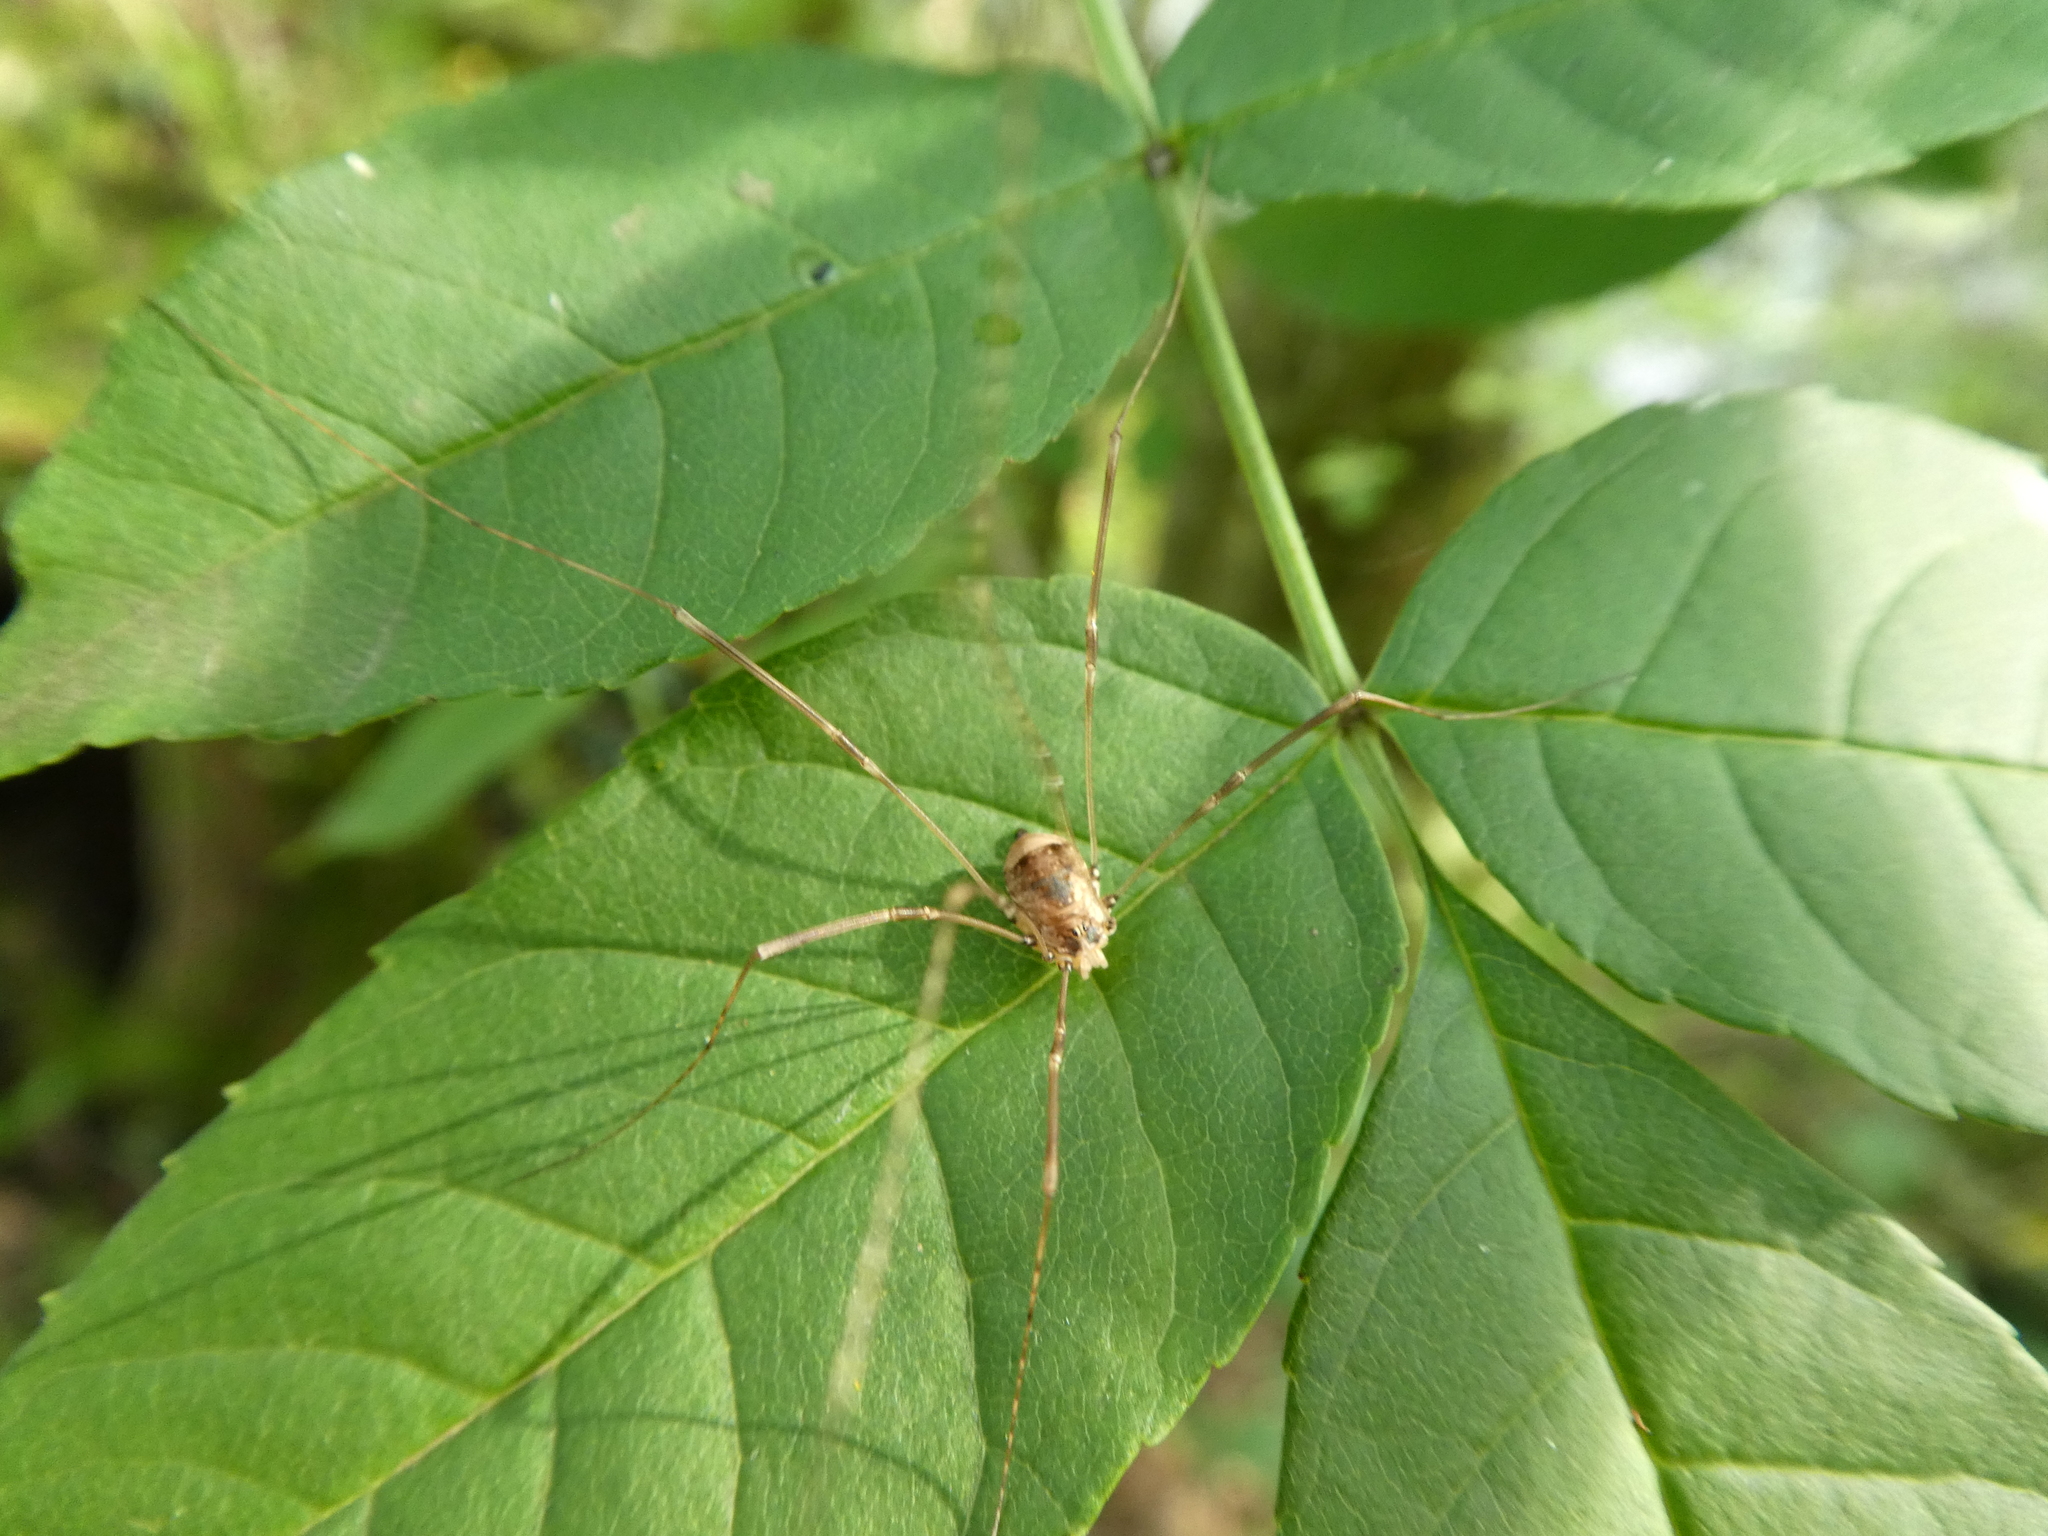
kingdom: Animalia
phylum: Arthropoda
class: Arachnida
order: Opiliones
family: Sclerosomatidae
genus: Leiobunum
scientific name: Leiobunum blackwalli
